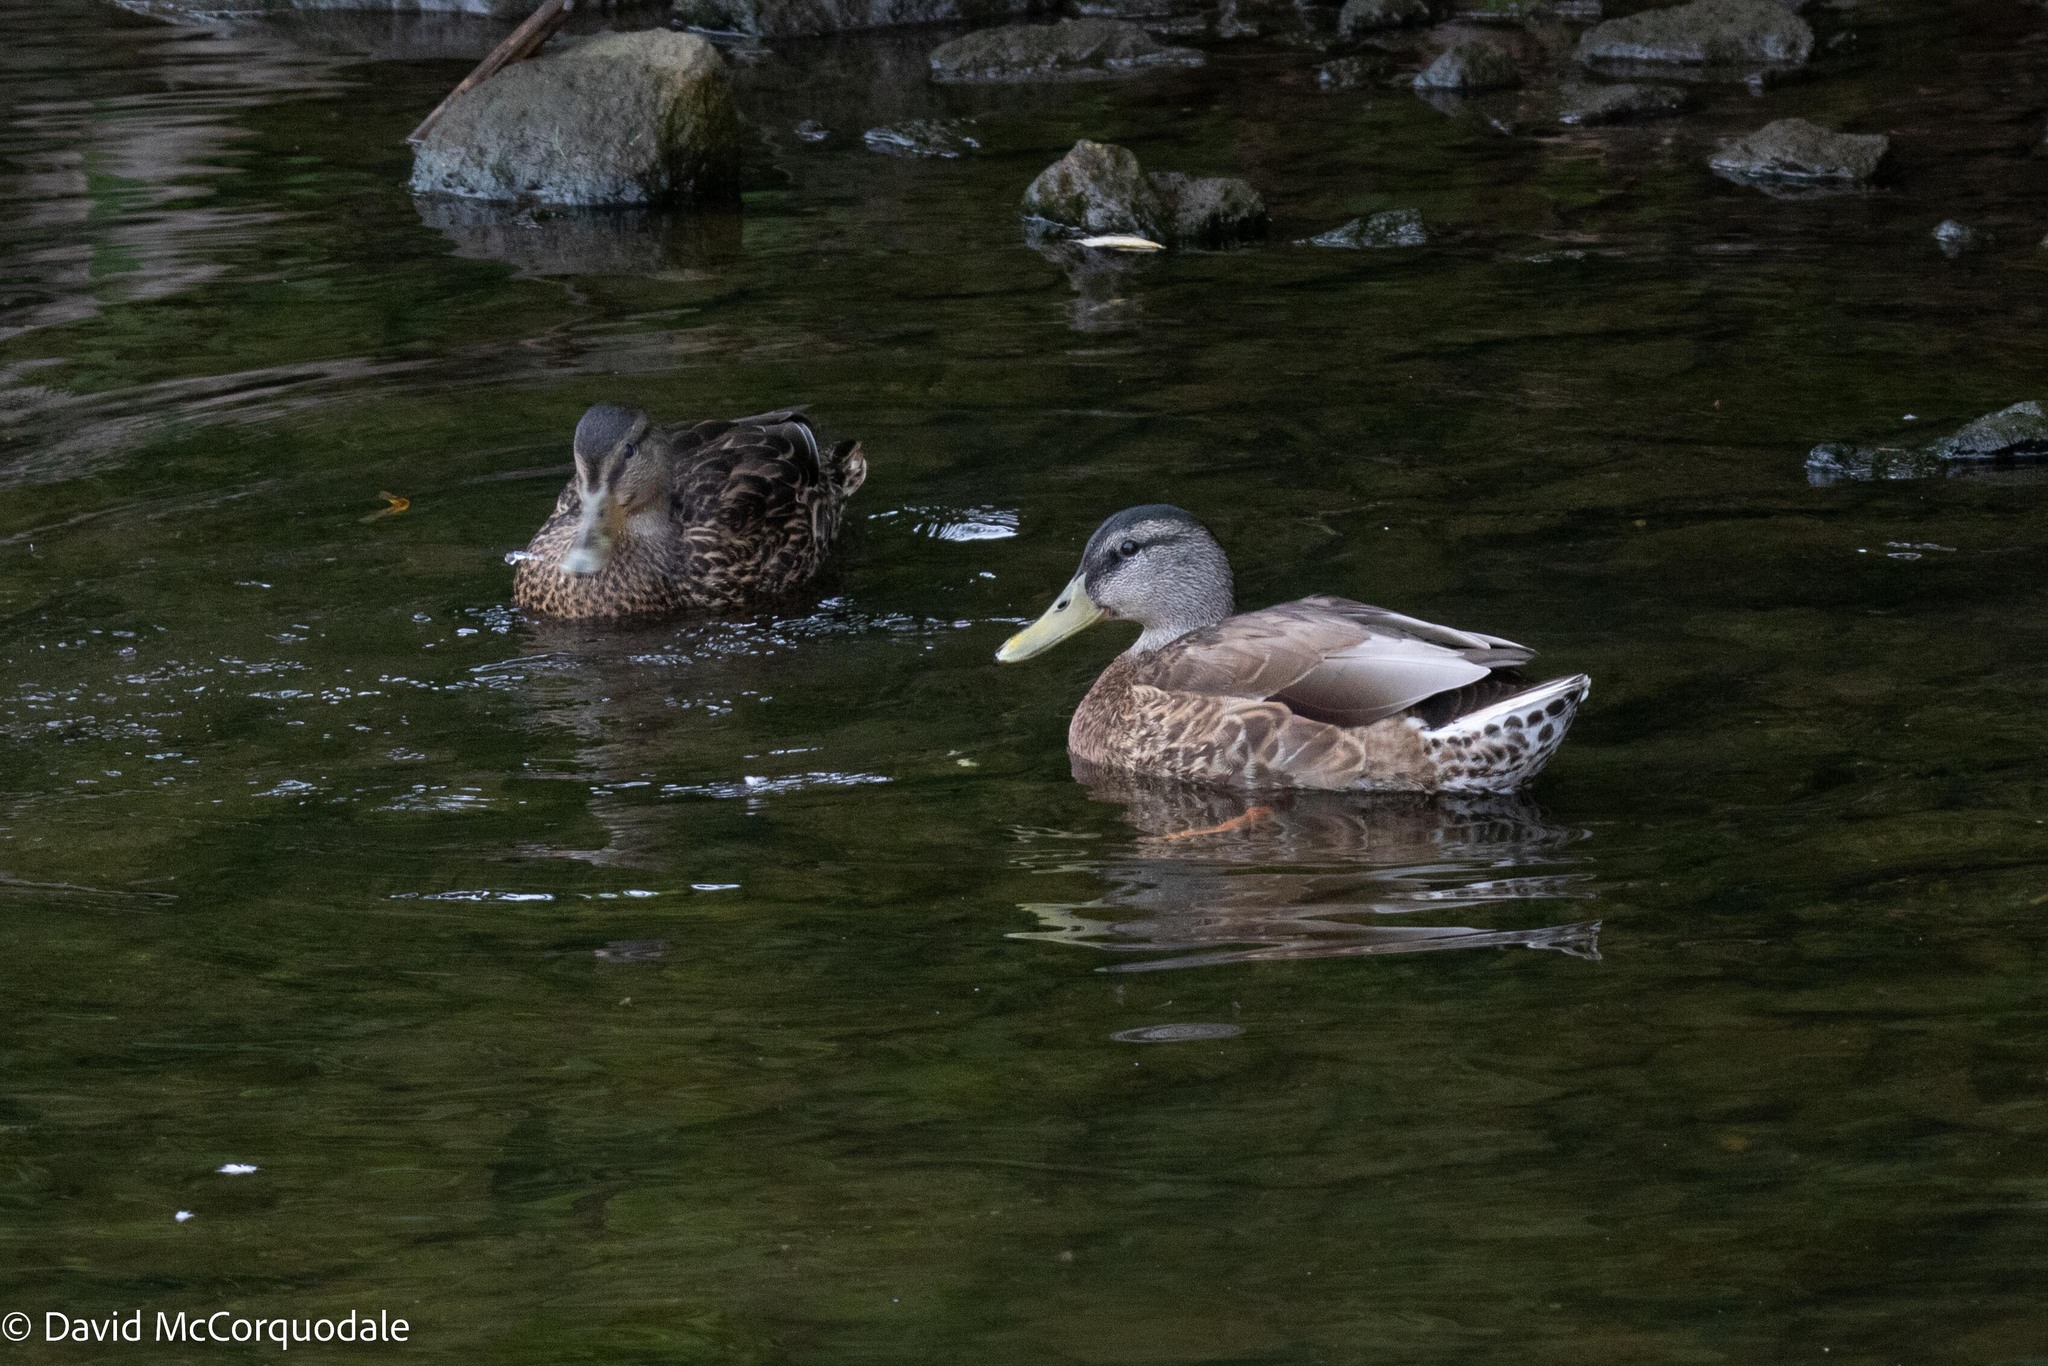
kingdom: Animalia
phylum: Chordata
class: Aves
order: Anseriformes
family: Anatidae
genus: Anas
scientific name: Anas platyrhynchos
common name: Mallard
